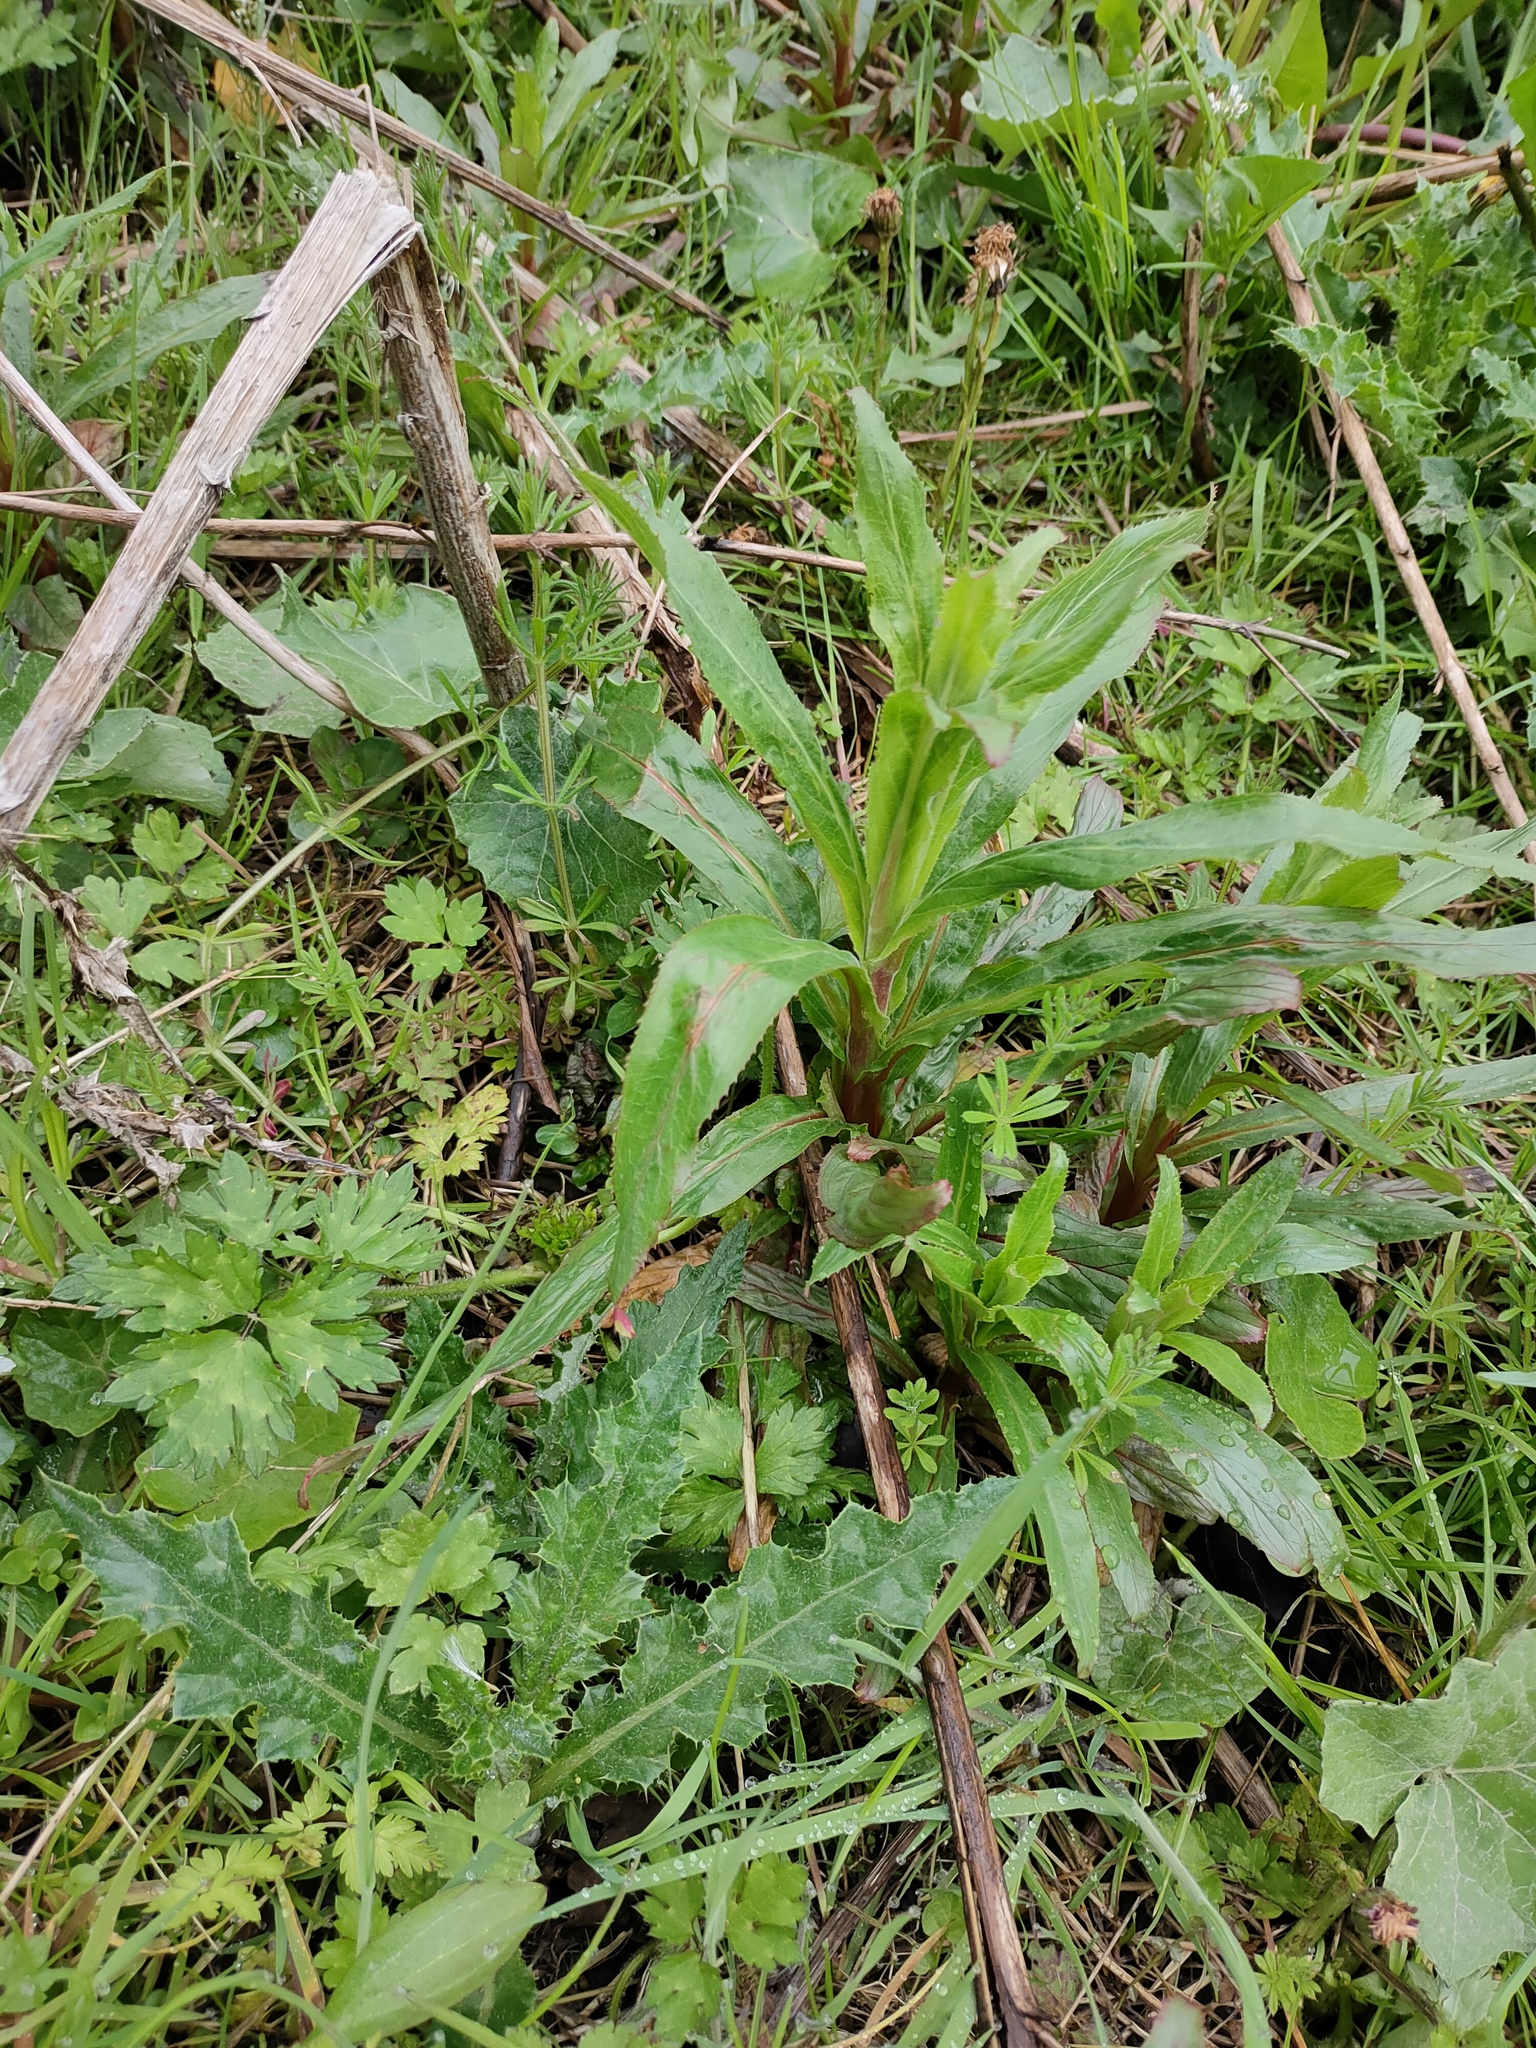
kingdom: Plantae
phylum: Tracheophyta
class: Magnoliopsida
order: Myrtales
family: Onagraceae
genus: Epilobium
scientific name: Epilobium hirsutum
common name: Great willowherb
